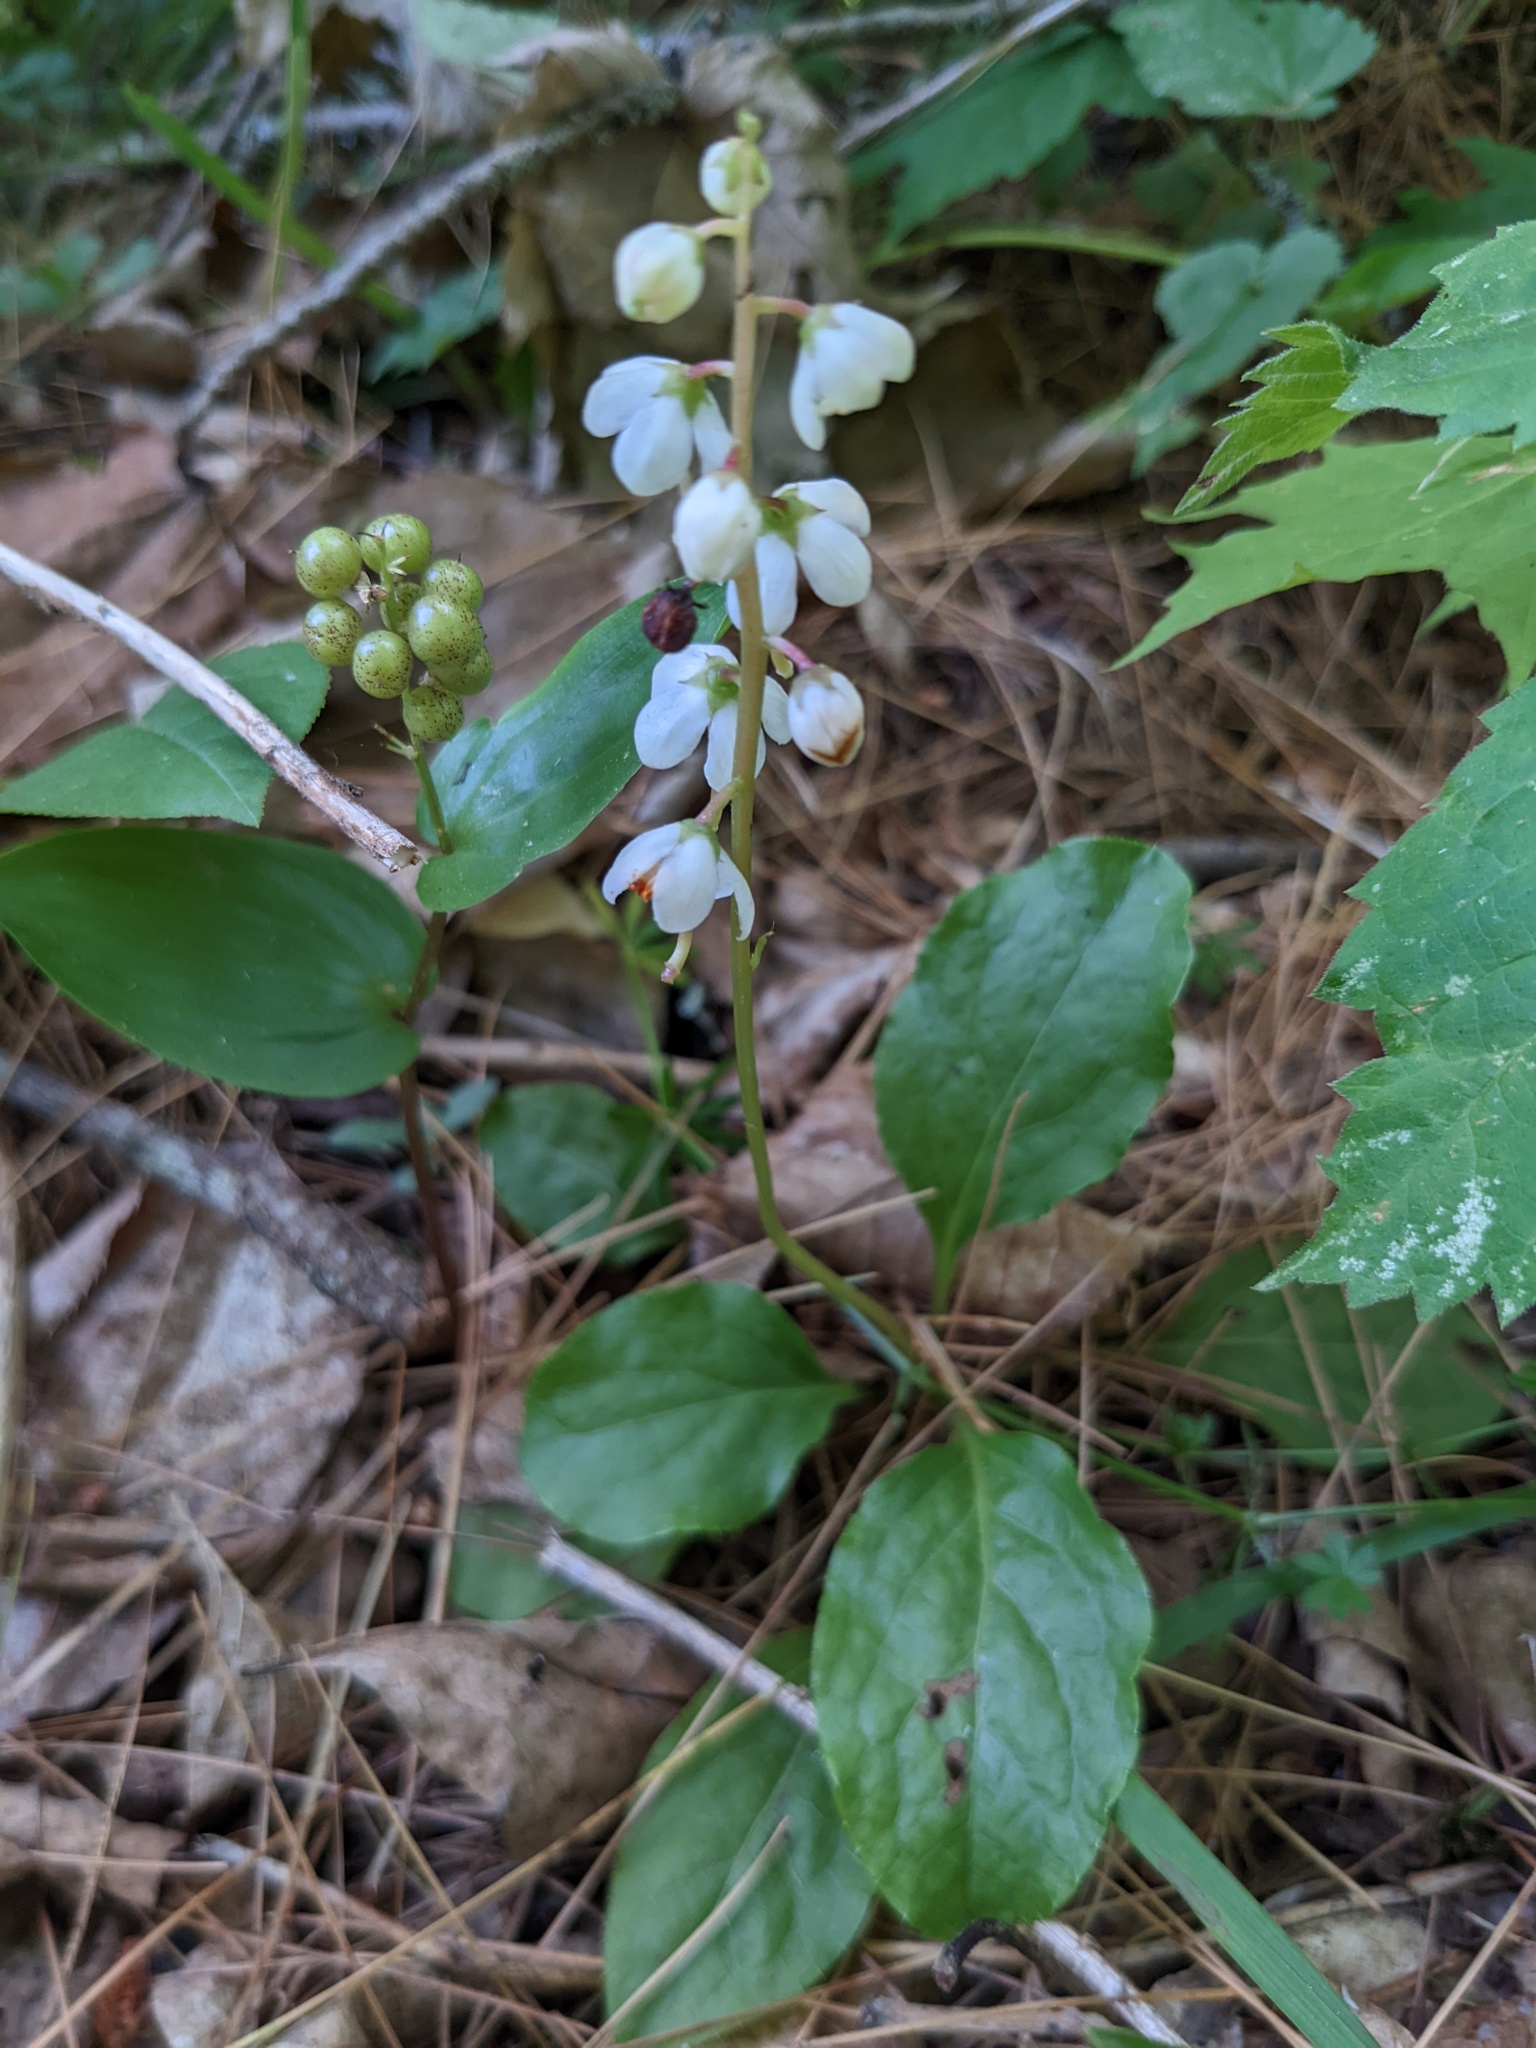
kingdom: Plantae
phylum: Tracheophyta
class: Liliopsida
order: Asparagales
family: Asparagaceae
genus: Maianthemum
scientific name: Maianthemum canadense
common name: False lily-of-the-valley
